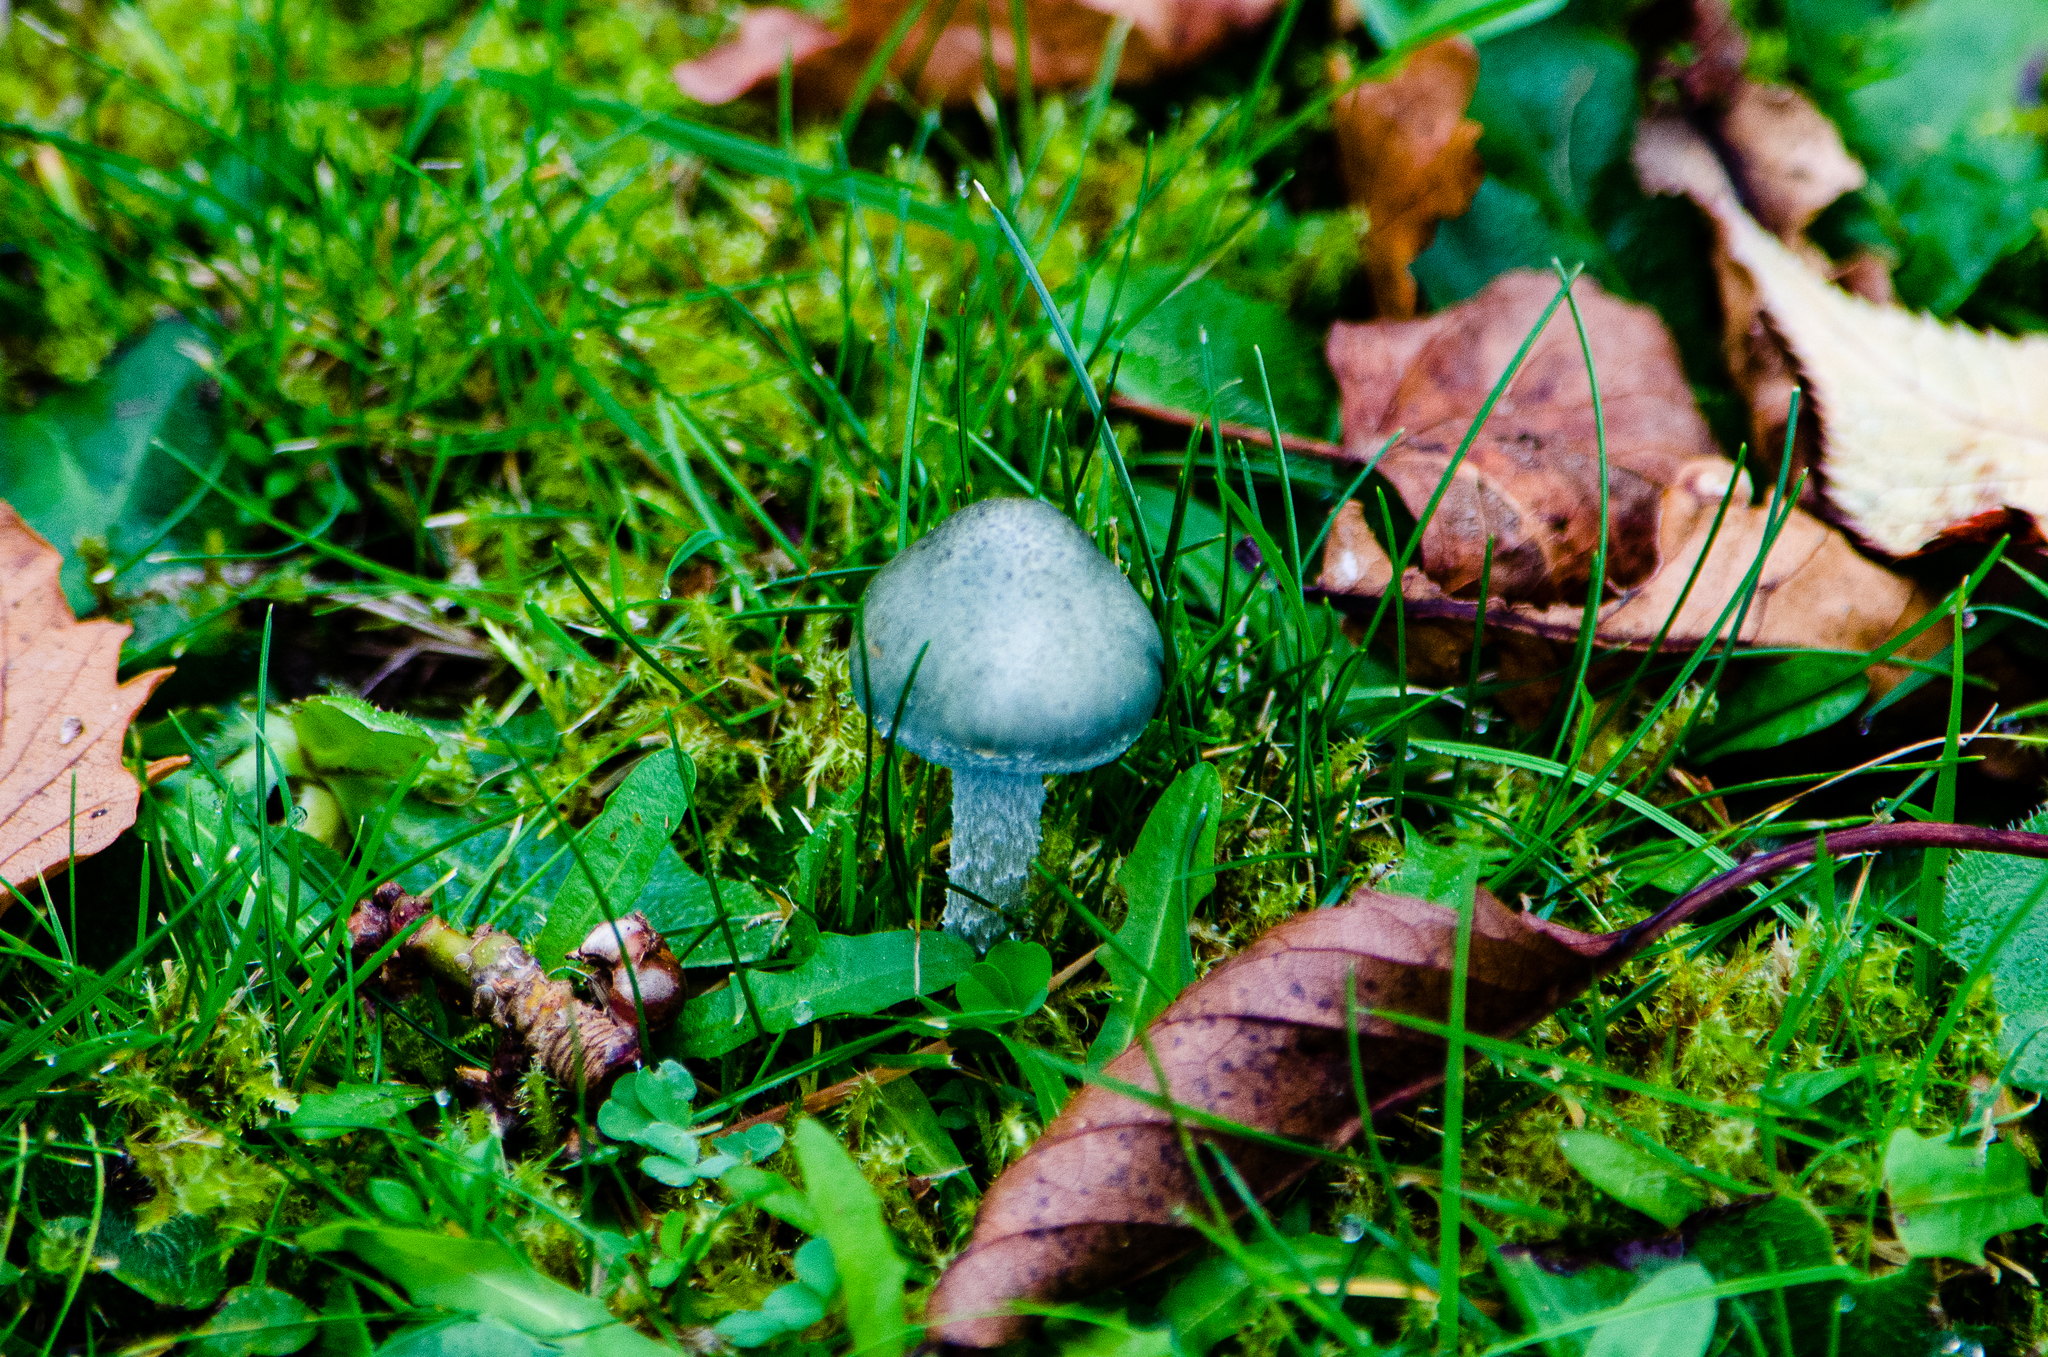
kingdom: Fungi
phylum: Basidiomycota
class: Agaricomycetes
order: Agaricales
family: Strophariaceae
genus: Stropharia
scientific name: Stropharia aeruginosa
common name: Verdigris roundhead
